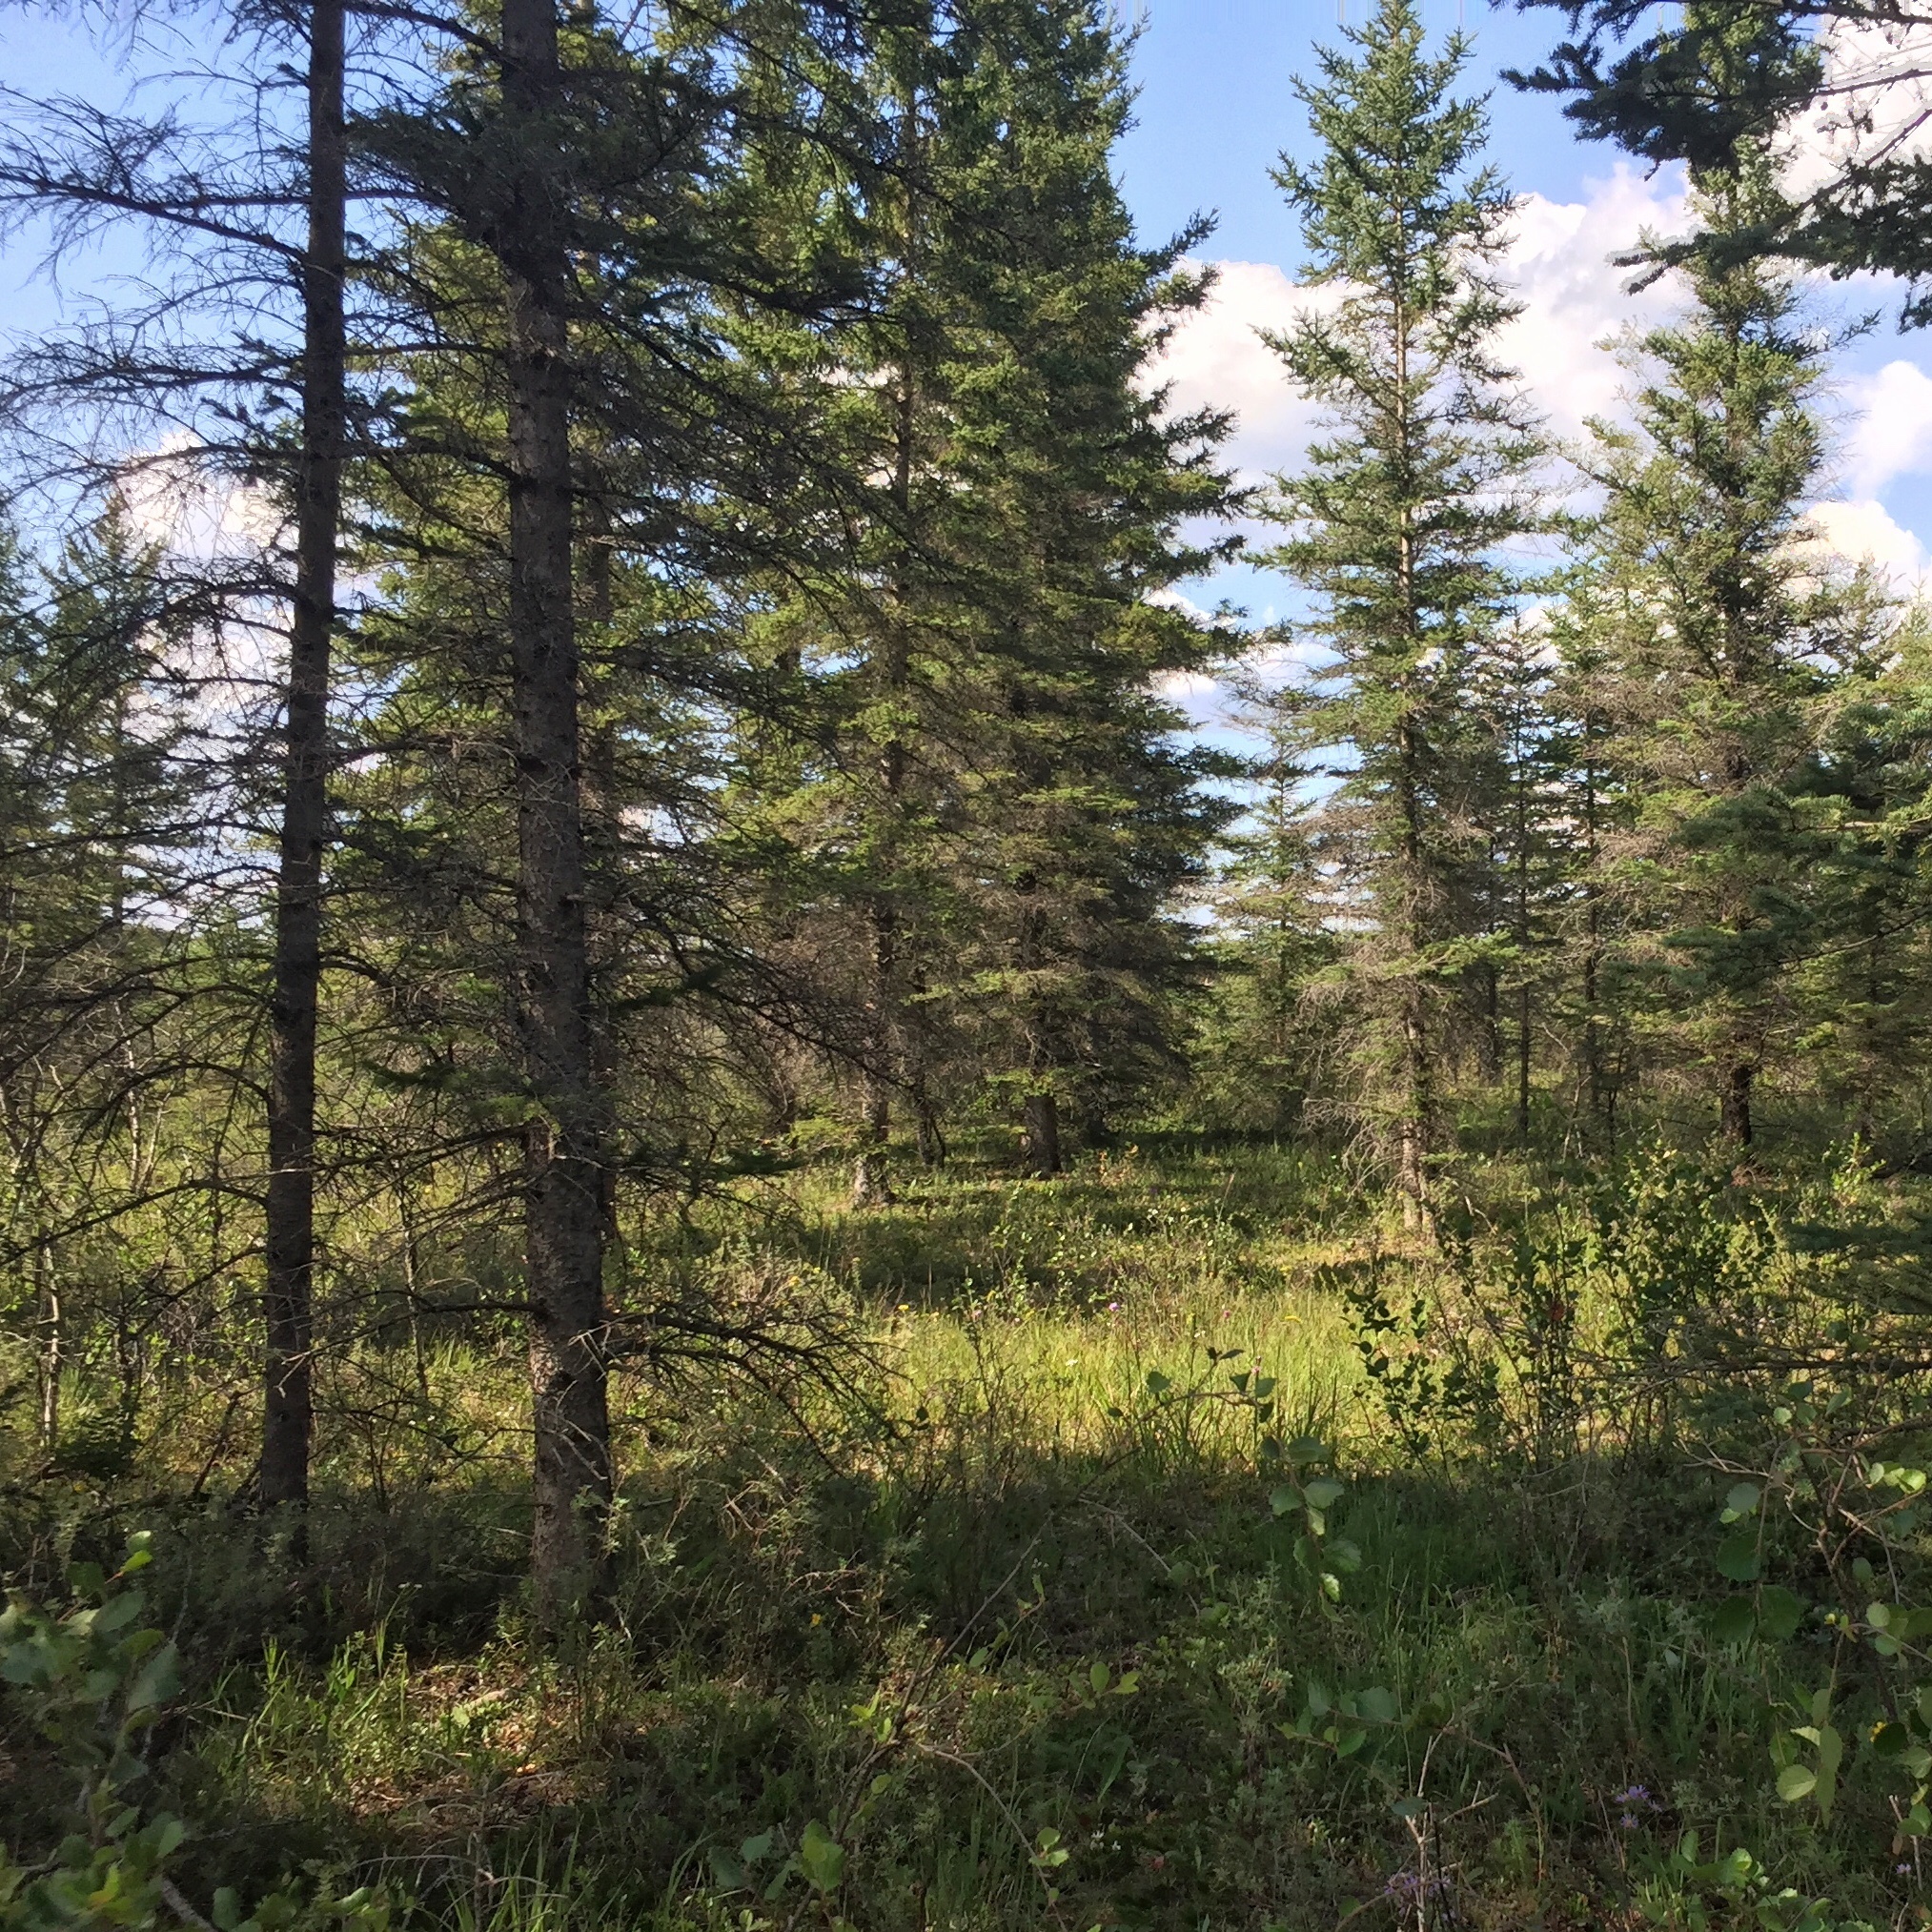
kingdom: Plantae
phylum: Tracheophyta
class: Pinopsida
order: Pinales
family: Pinaceae
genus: Picea
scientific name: Picea glauca
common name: White spruce
